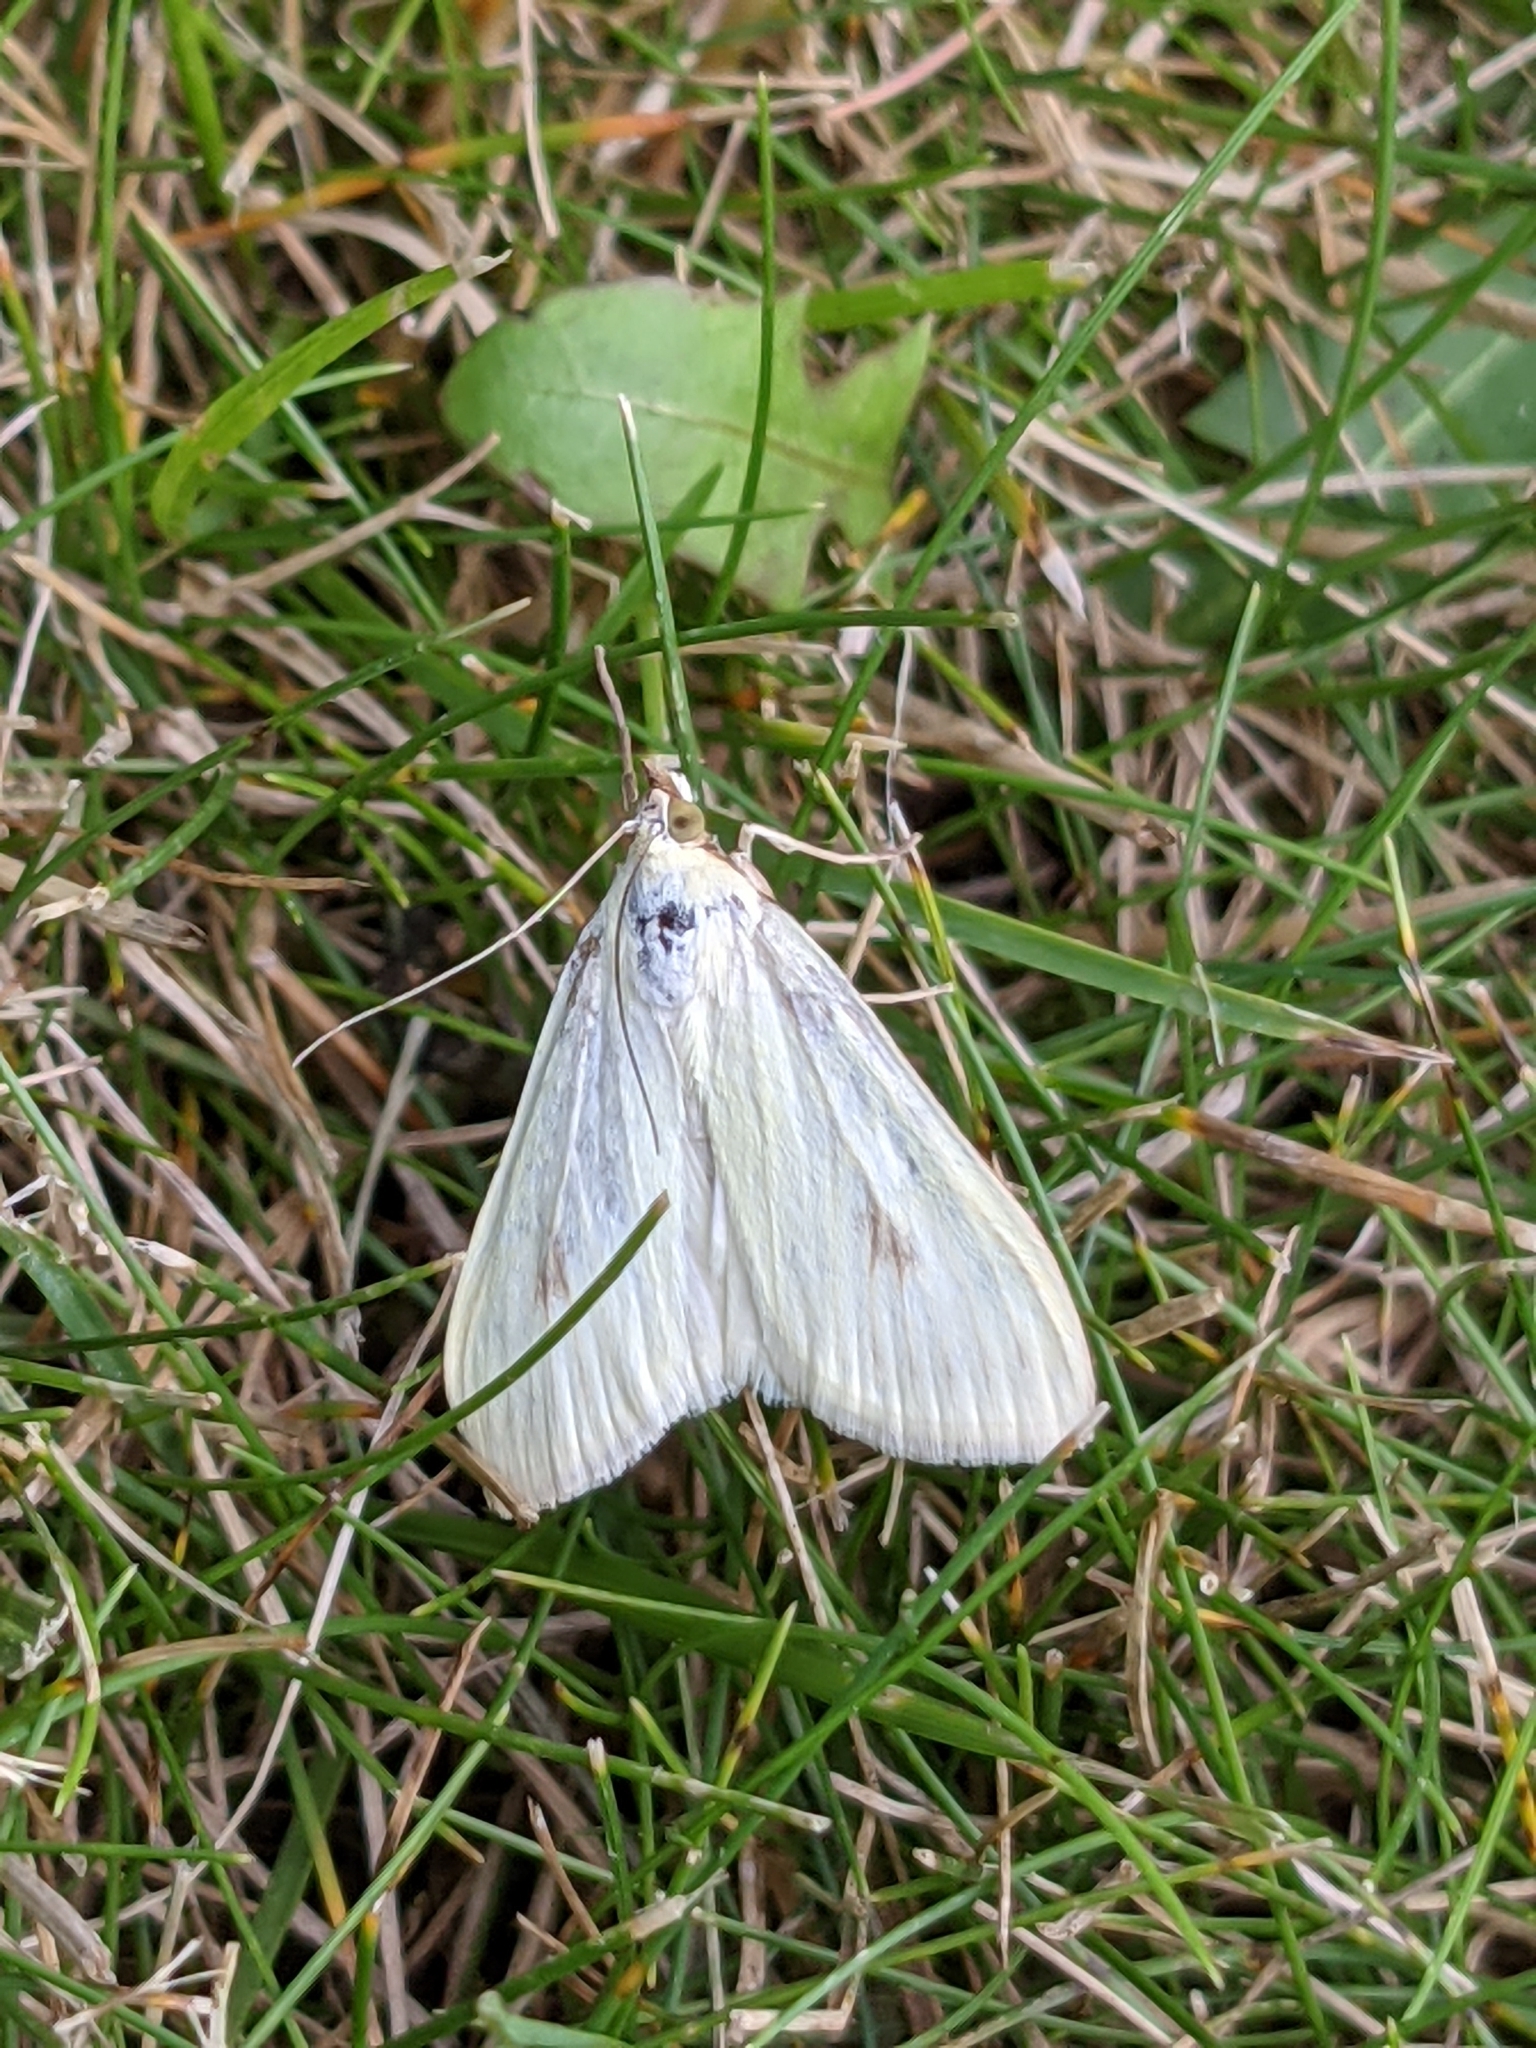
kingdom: Animalia
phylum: Arthropoda
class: Insecta
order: Lepidoptera
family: Crambidae
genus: Sitochroa
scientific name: Sitochroa palealis
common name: Greenish-yellow sitochroa moth
